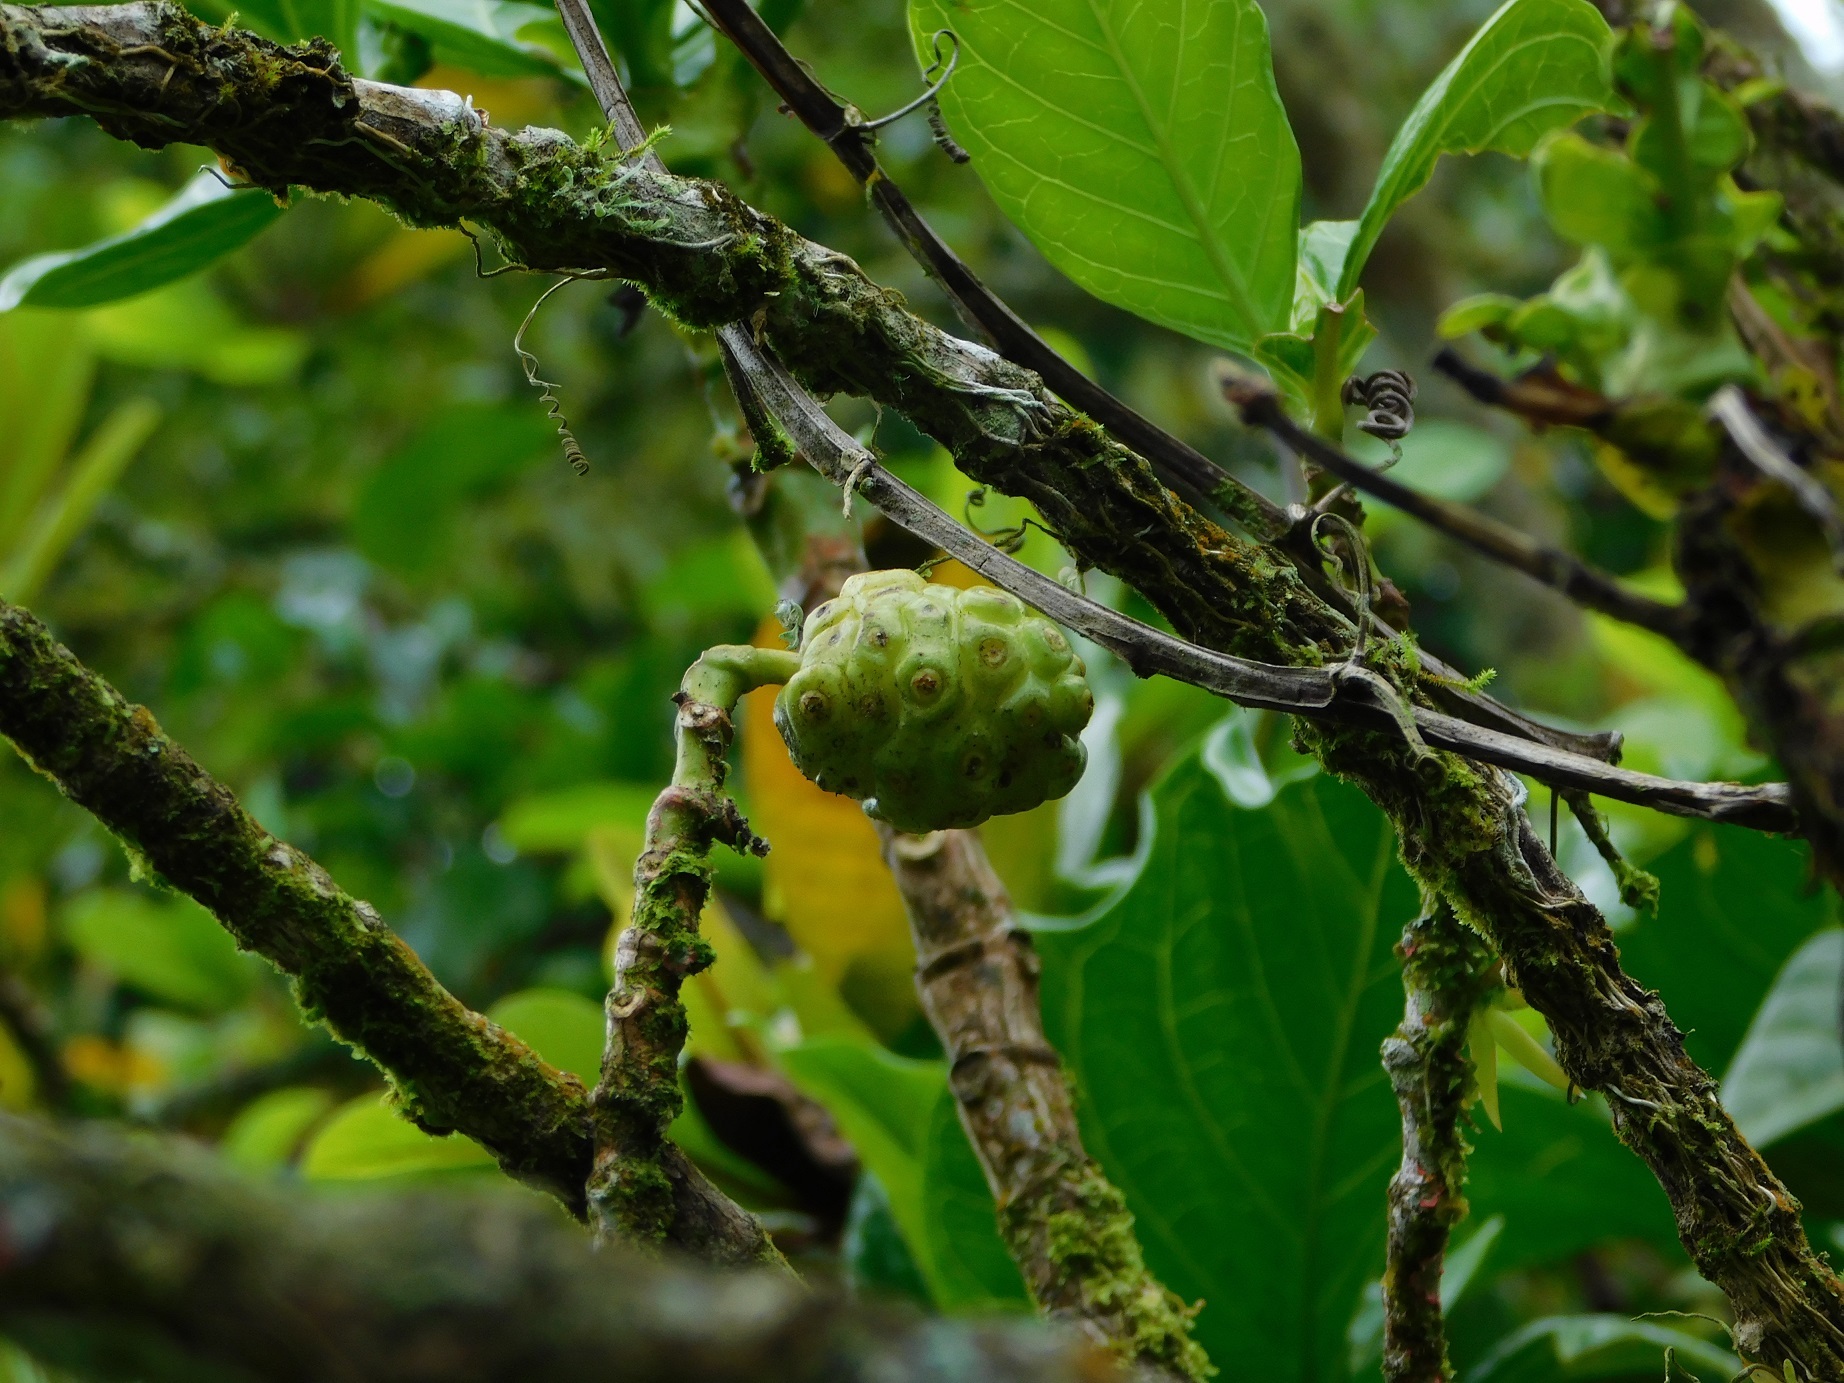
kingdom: Plantae
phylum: Tracheophyta
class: Magnoliopsida
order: Gentianales
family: Rubiaceae
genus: Morinda
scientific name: Morinda citrifolia
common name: Indian-mulberry
